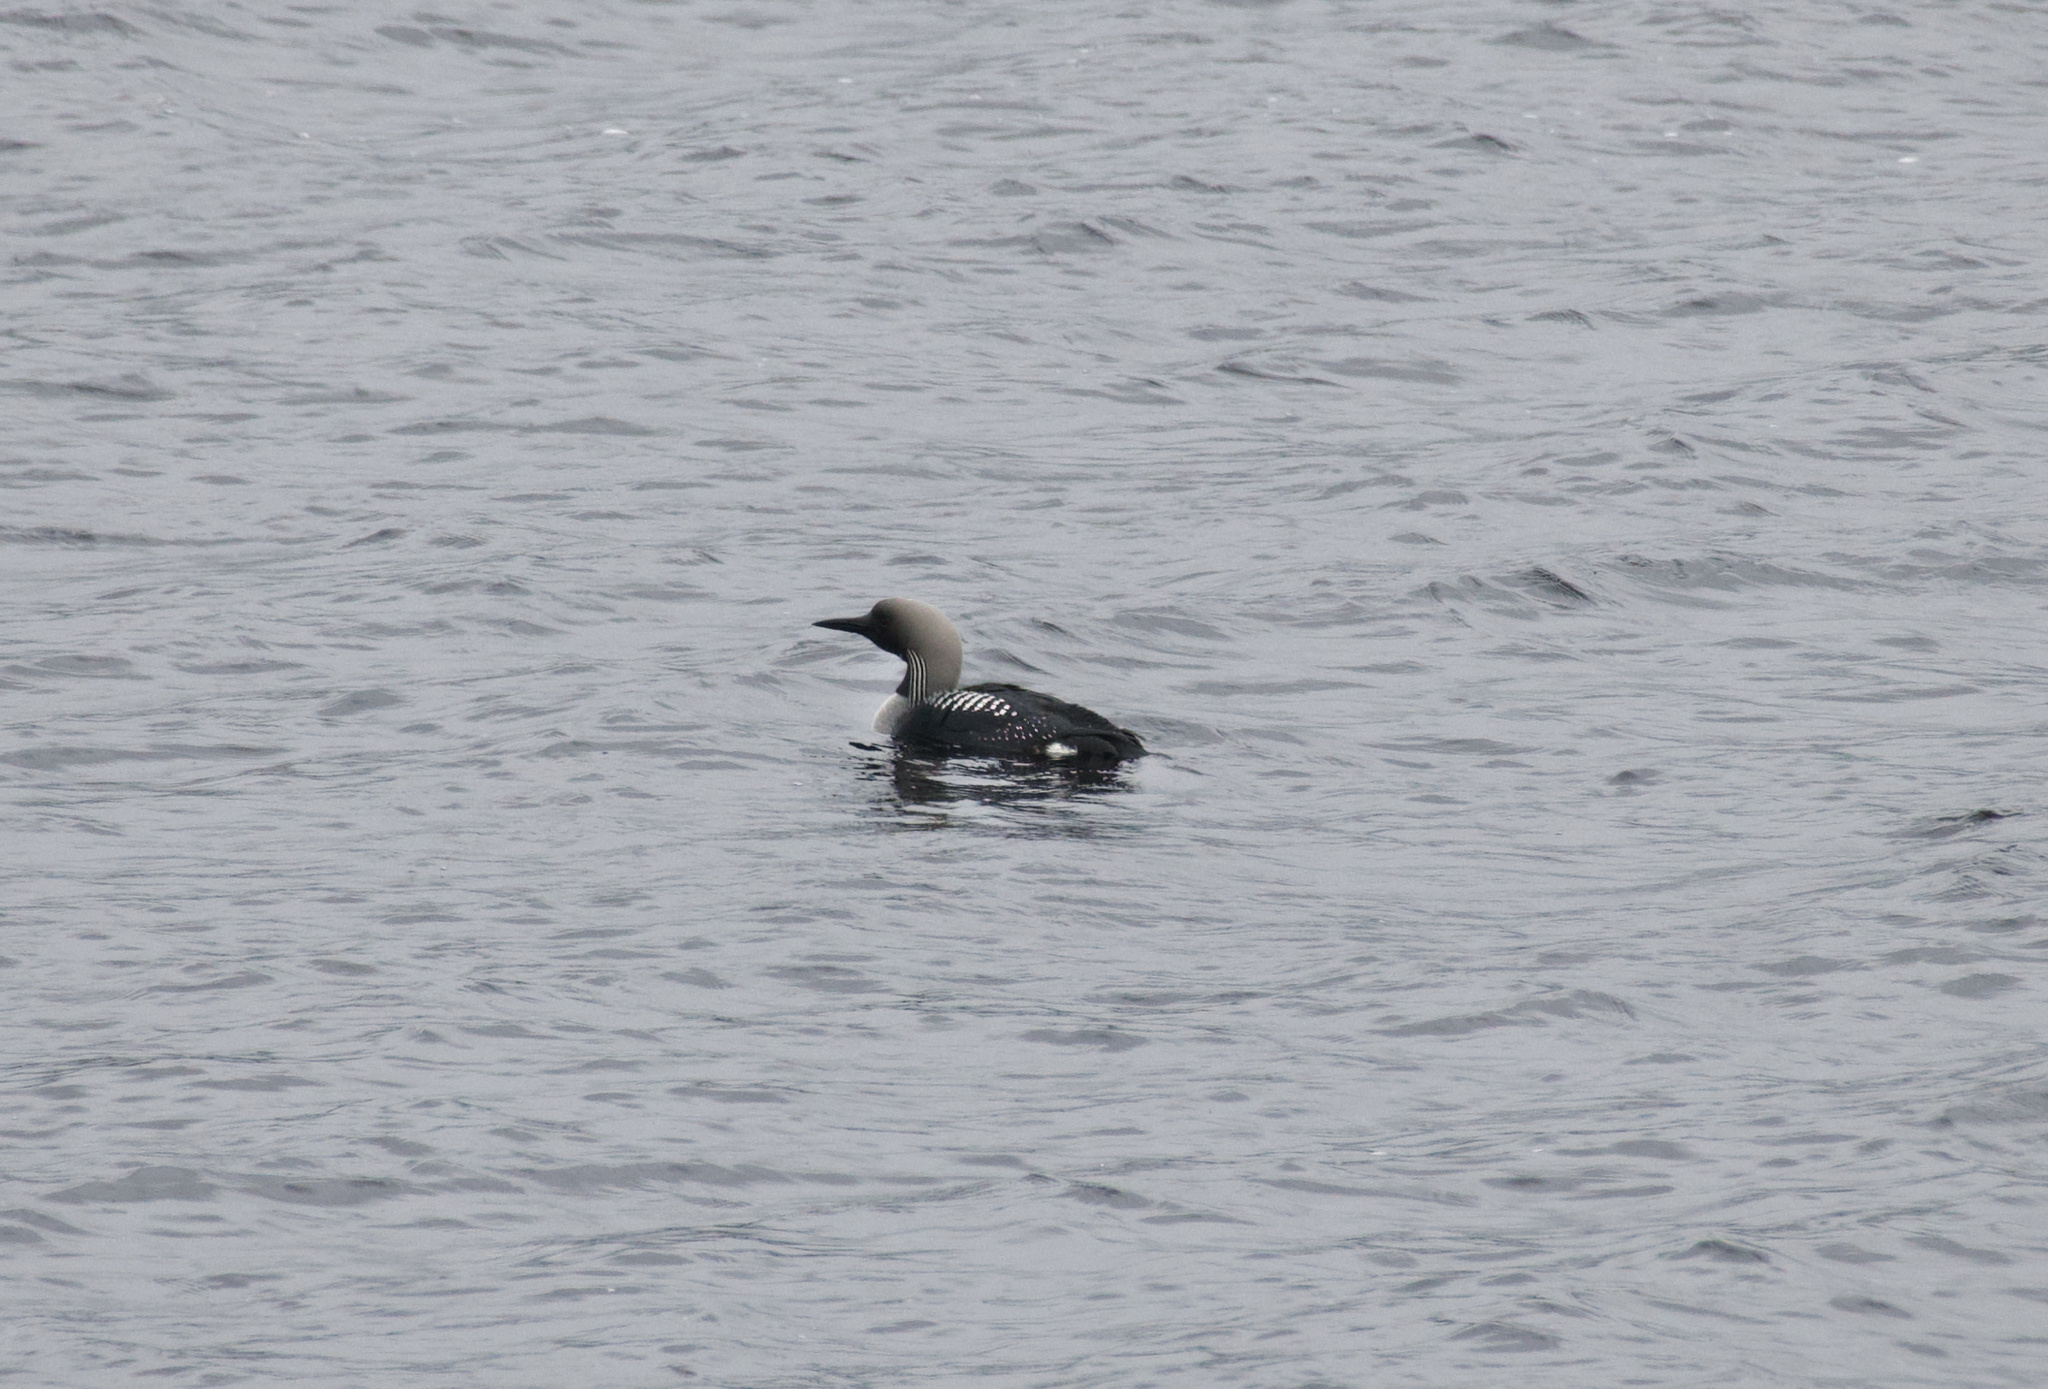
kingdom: Animalia
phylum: Chordata
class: Aves
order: Gaviiformes
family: Gaviidae
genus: Gavia
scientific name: Gavia arctica
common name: Black-throated loon
